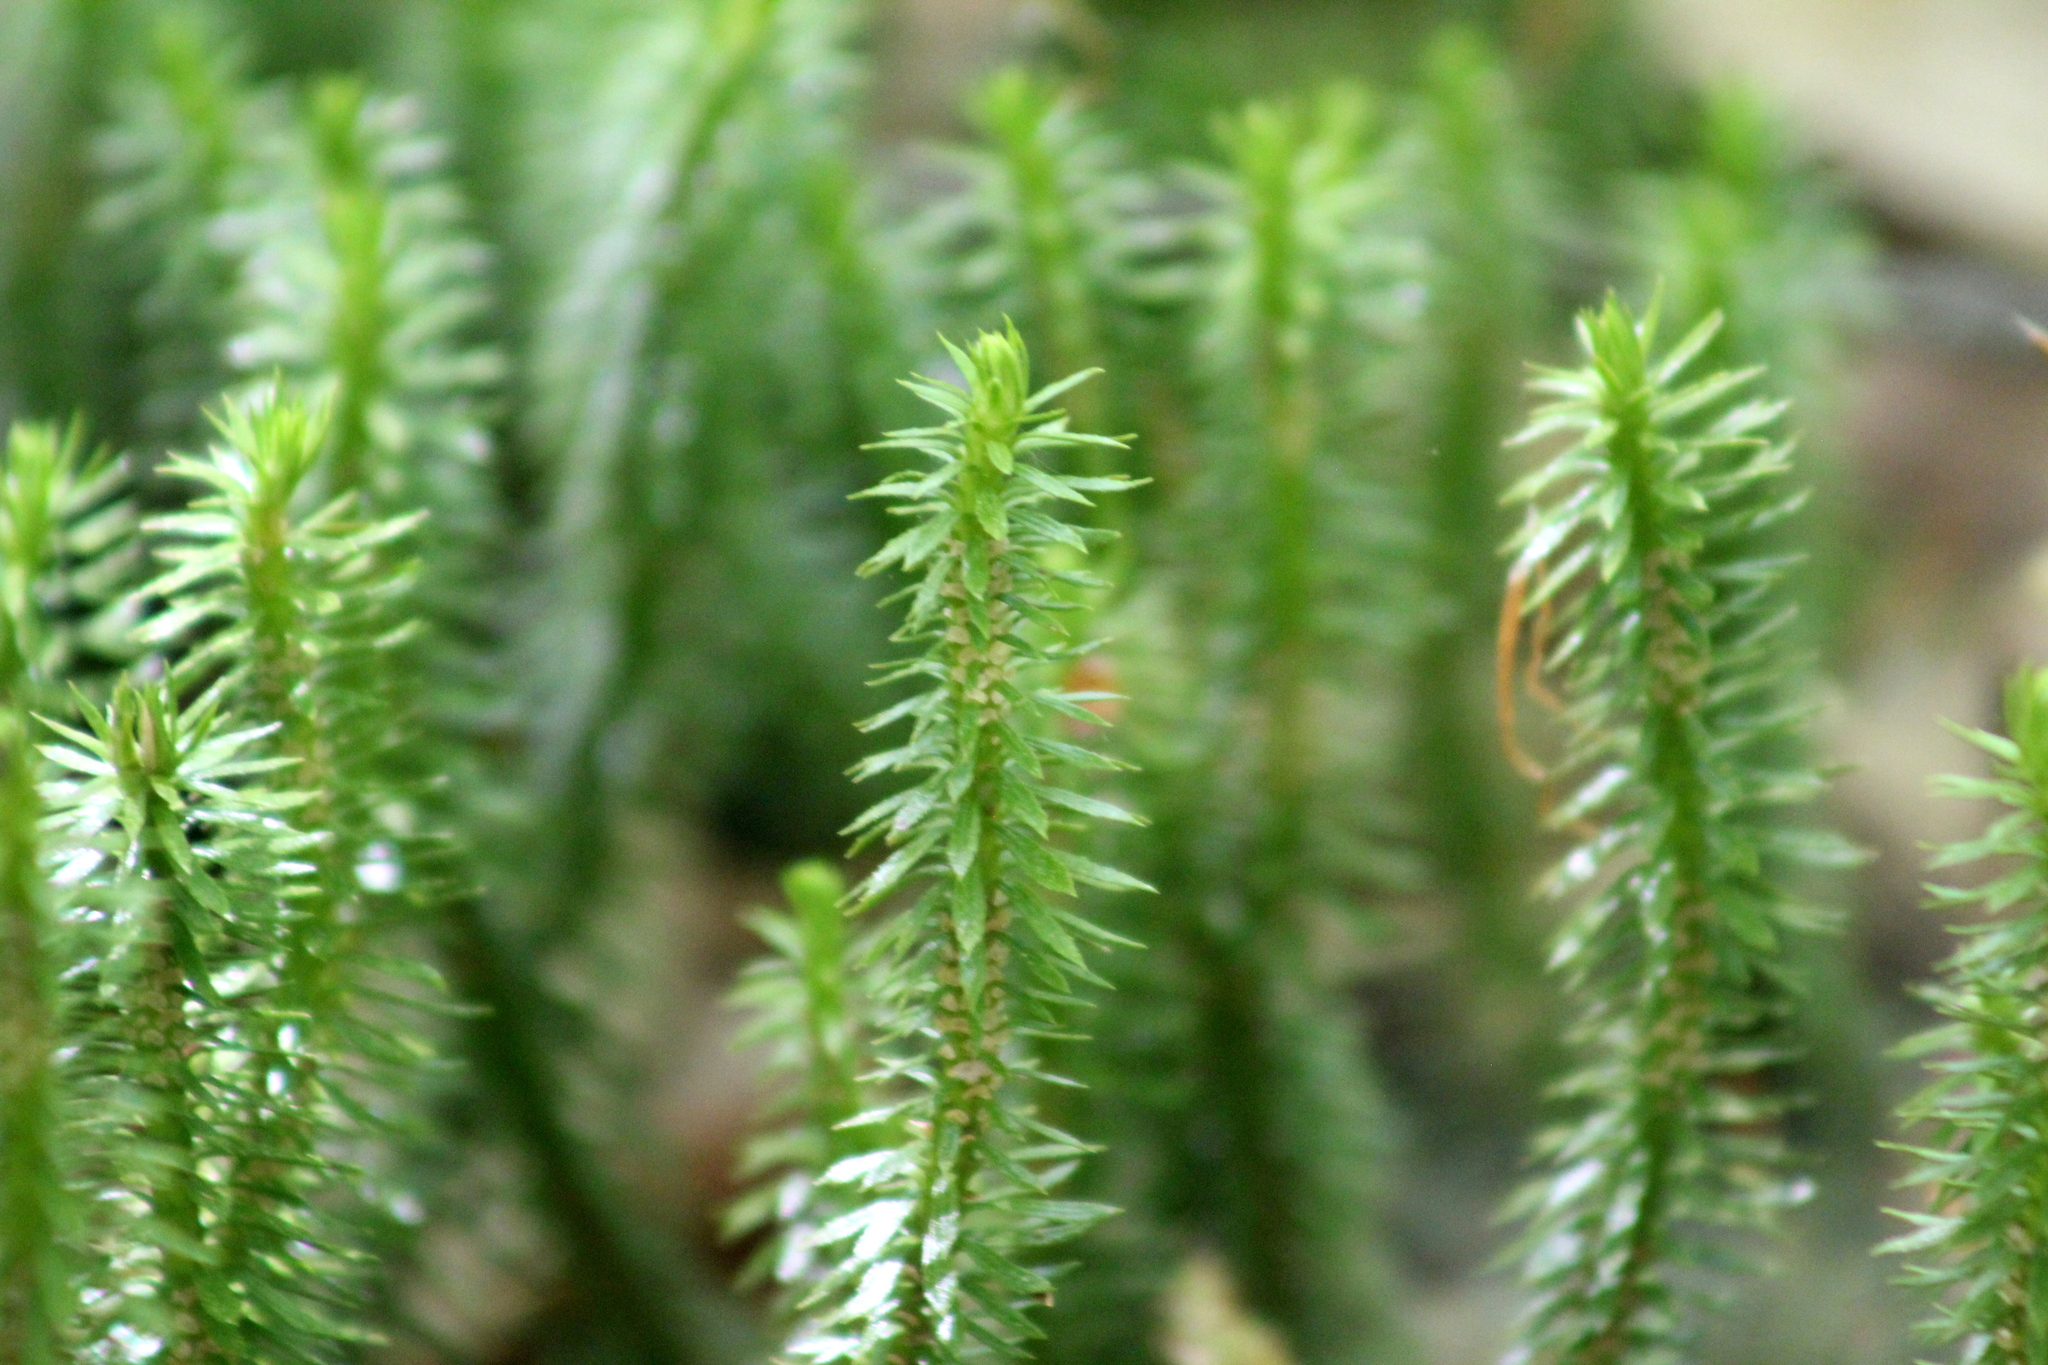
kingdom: Plantae
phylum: Tracheophyta
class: Lycopodiopsida
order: Lycopodiales
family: Lycopodiaceae
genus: Huperzia
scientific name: Huperzia lucidula
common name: Shining clubmoss
